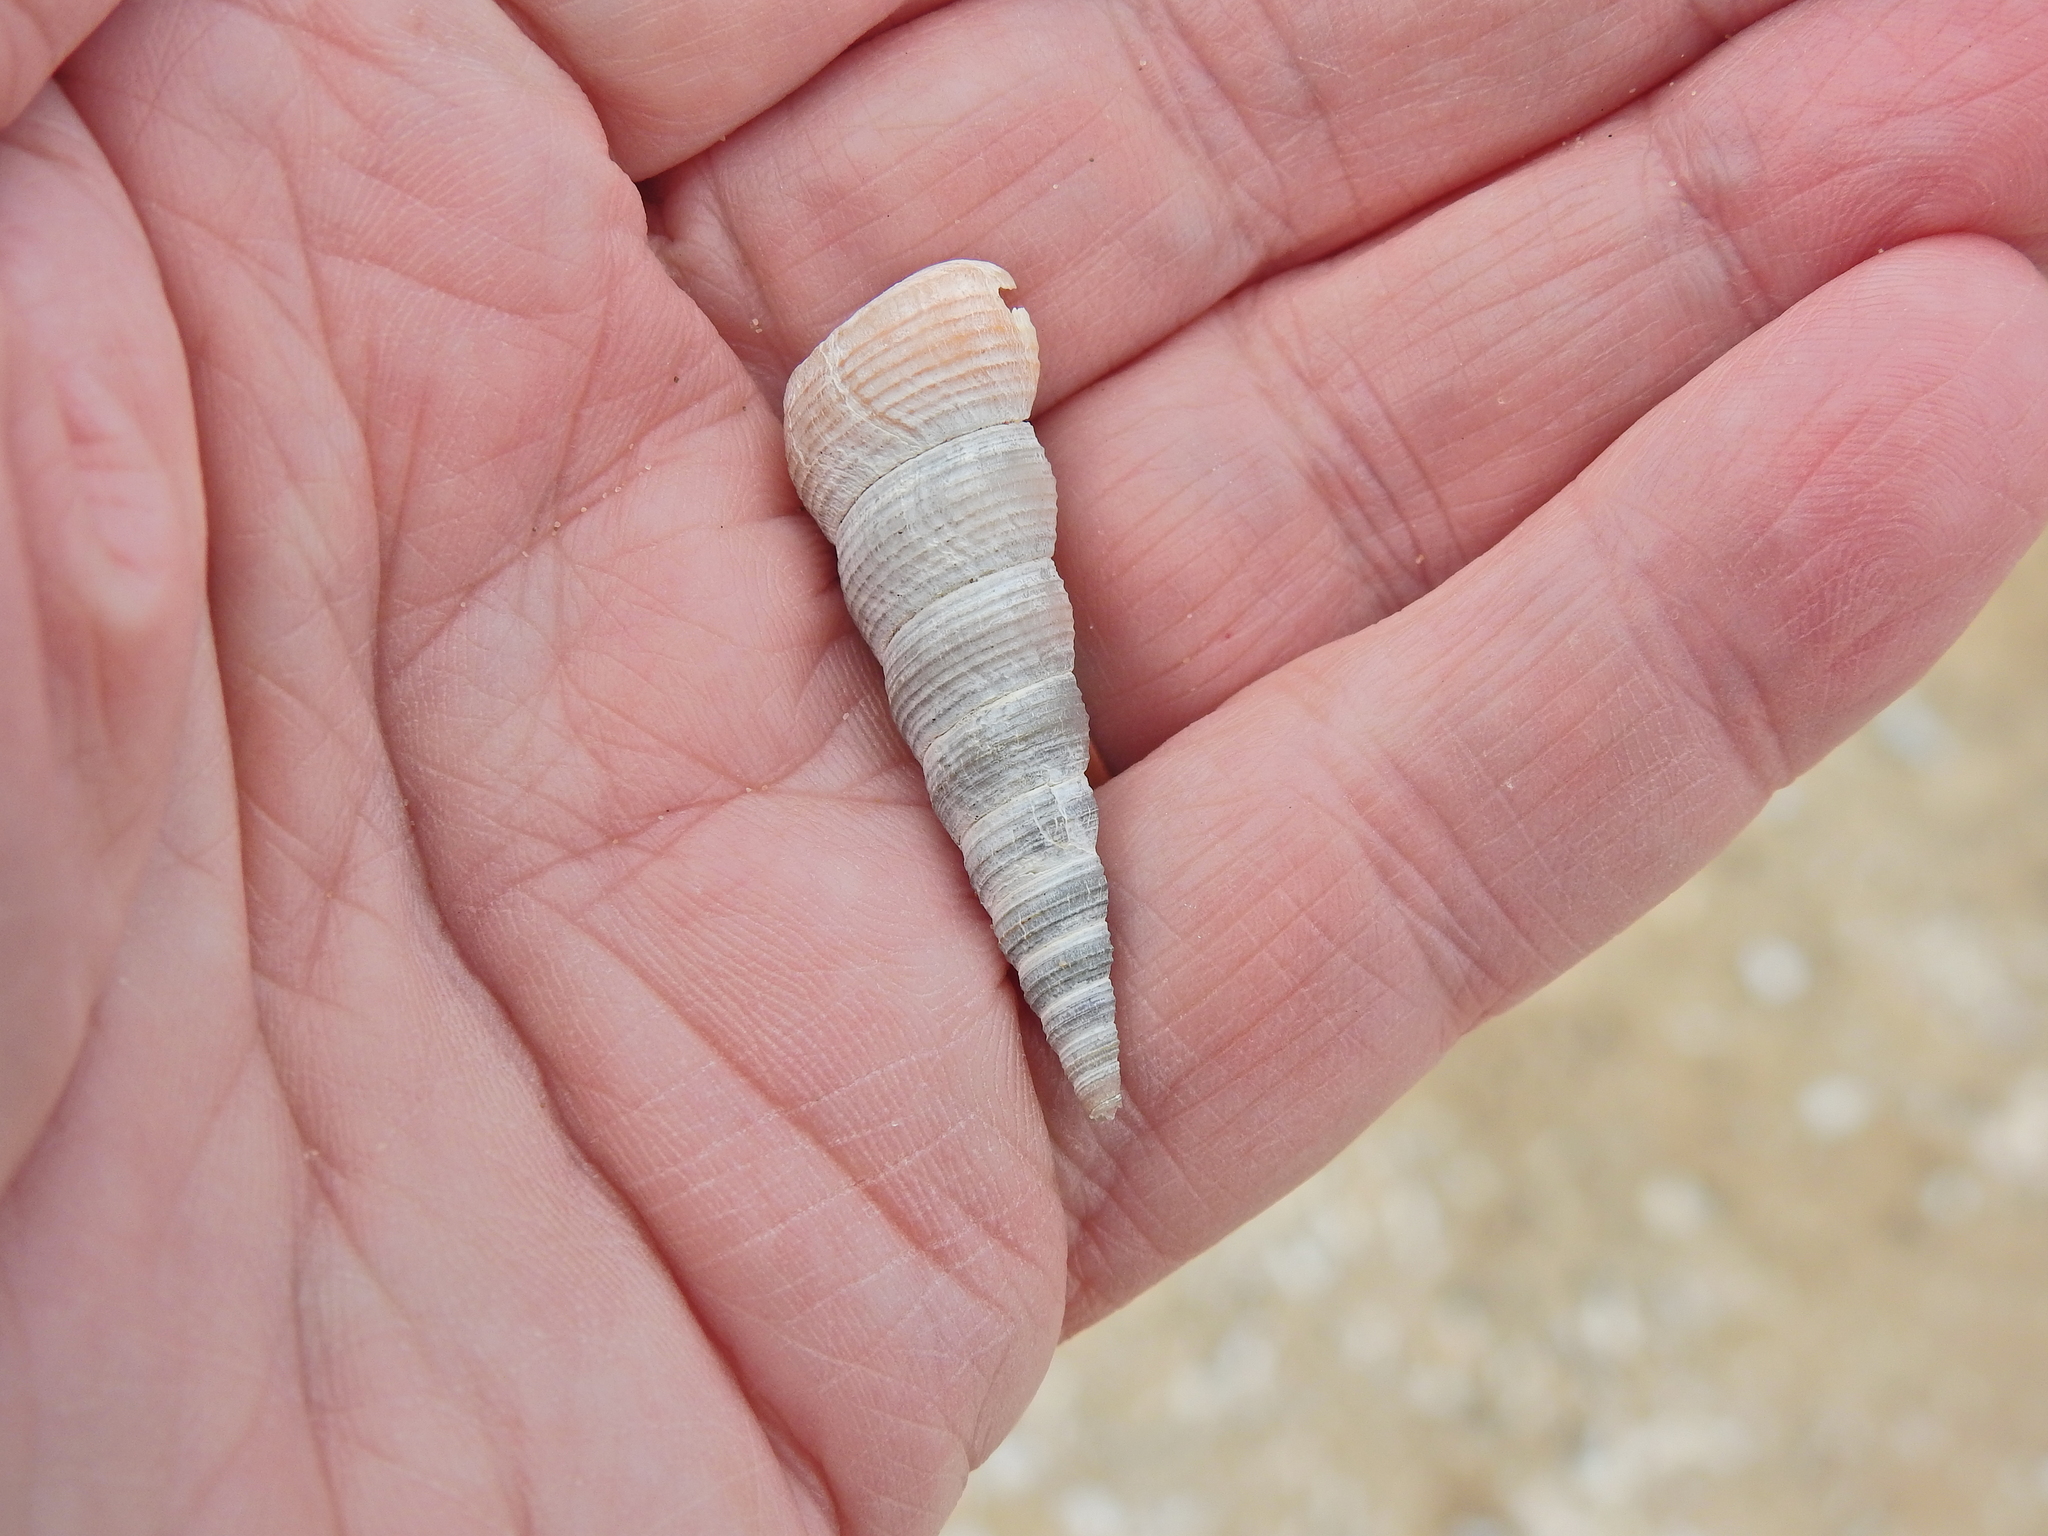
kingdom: Animalia
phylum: Mollusca
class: Gastropoda
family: Turritellidae
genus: Turritellinella
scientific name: Turritellinella tricarinata
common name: Auger shell
